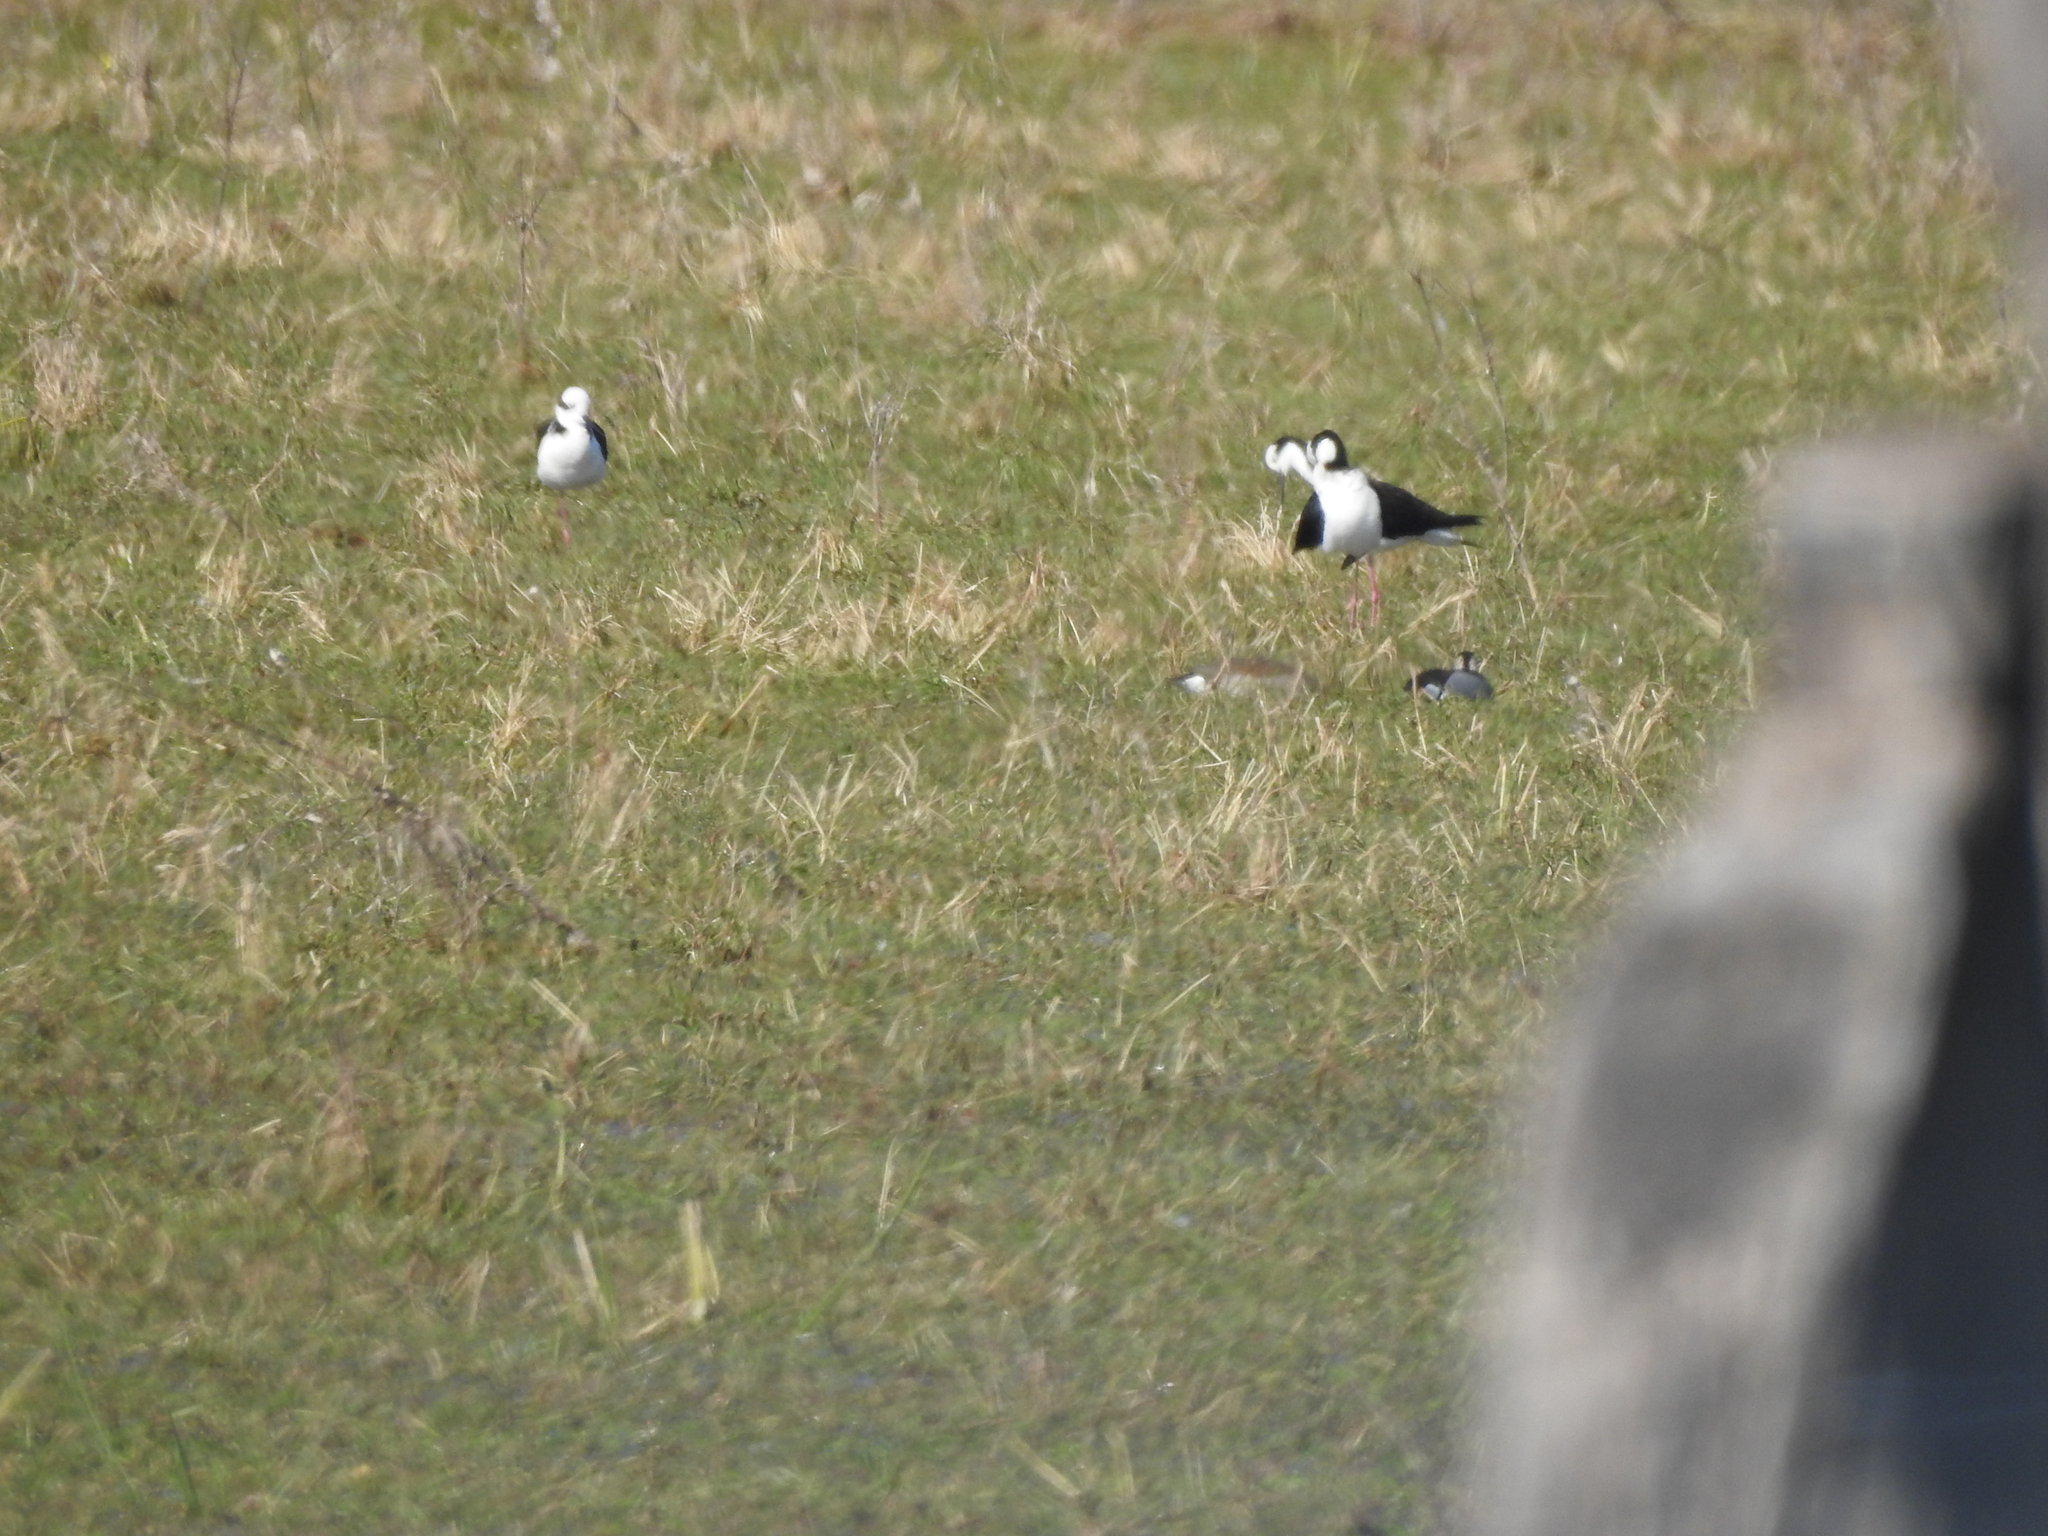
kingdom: Animalia
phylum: Chordata
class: Aves
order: Charadriiformes
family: Recurvirostridae
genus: Himantopus
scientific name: Himantopus mexicanus
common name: Black-necked stilt
